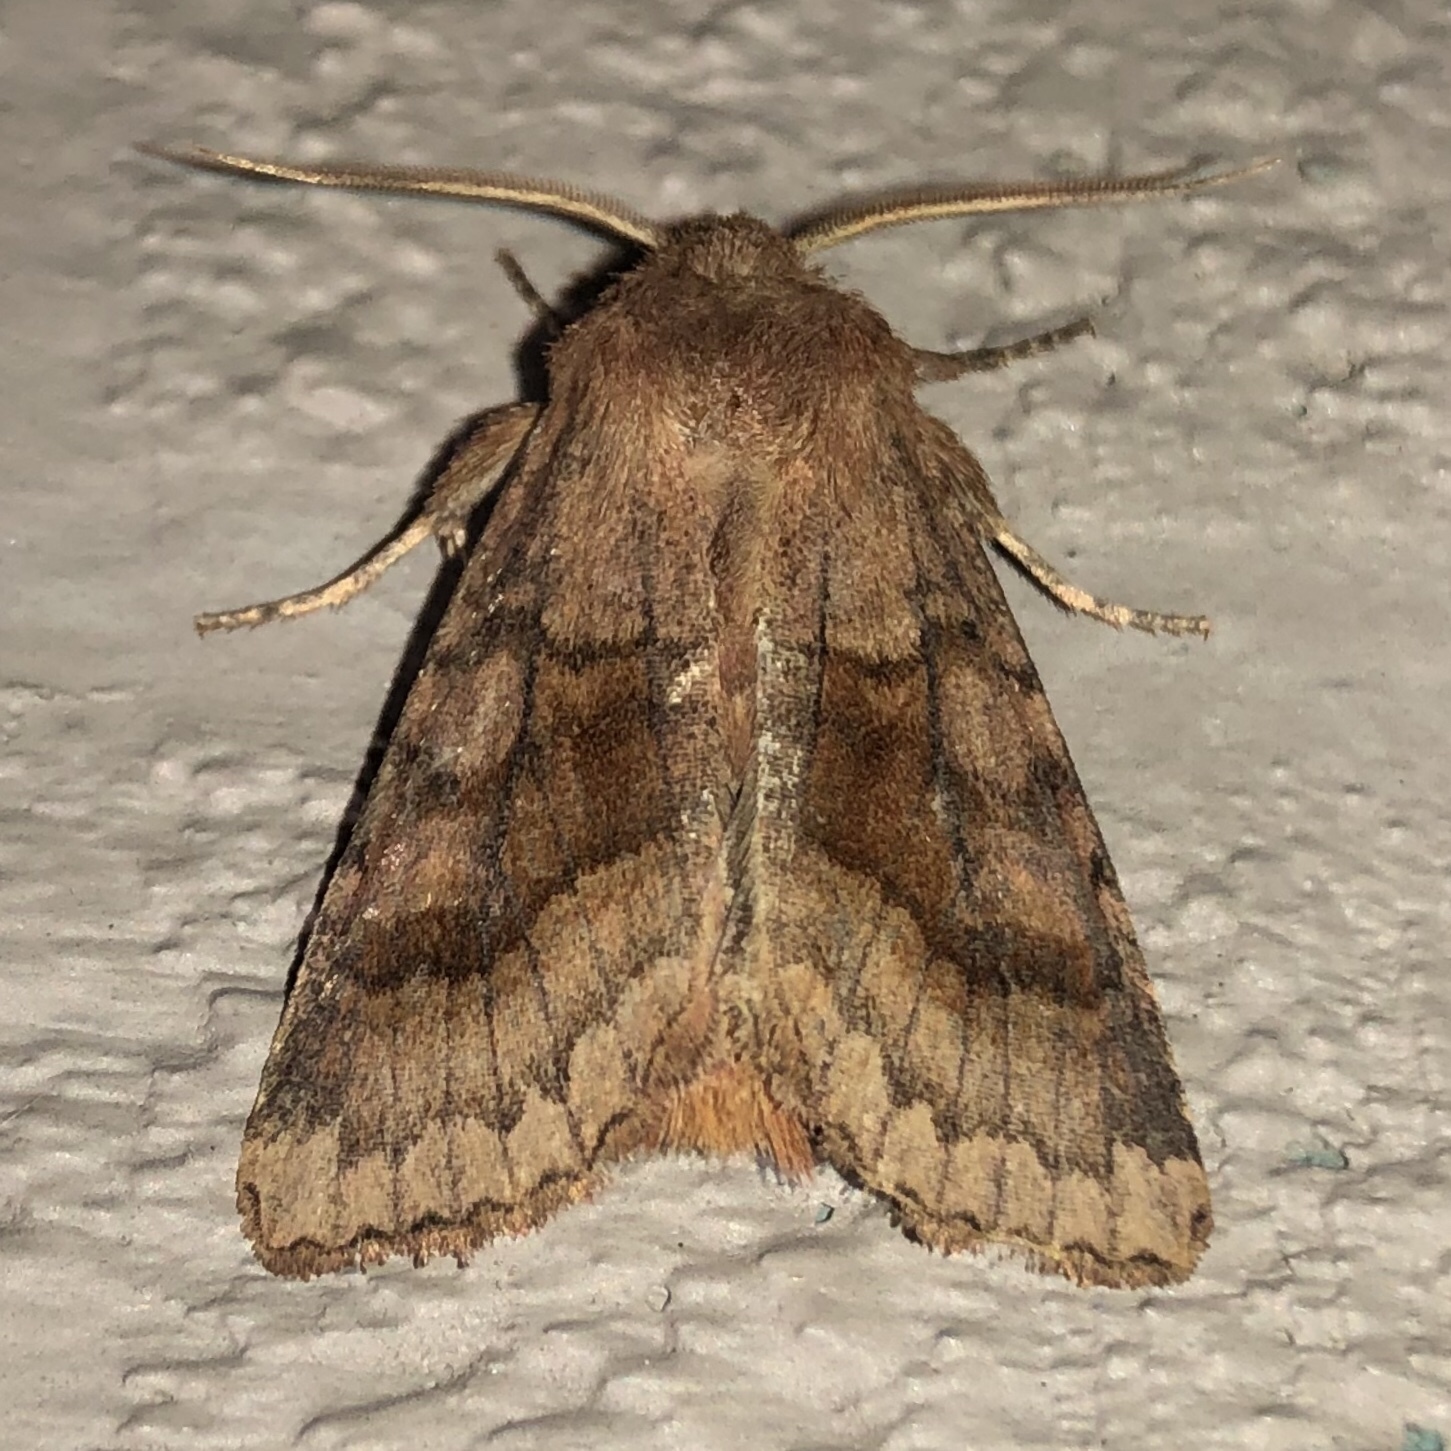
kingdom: Animalia
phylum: Arthropoda
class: Insecta
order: Lepidoptera
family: Noctuidae
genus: Nephelodes
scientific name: Nephelodes minians
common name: Bronzed cutworm
